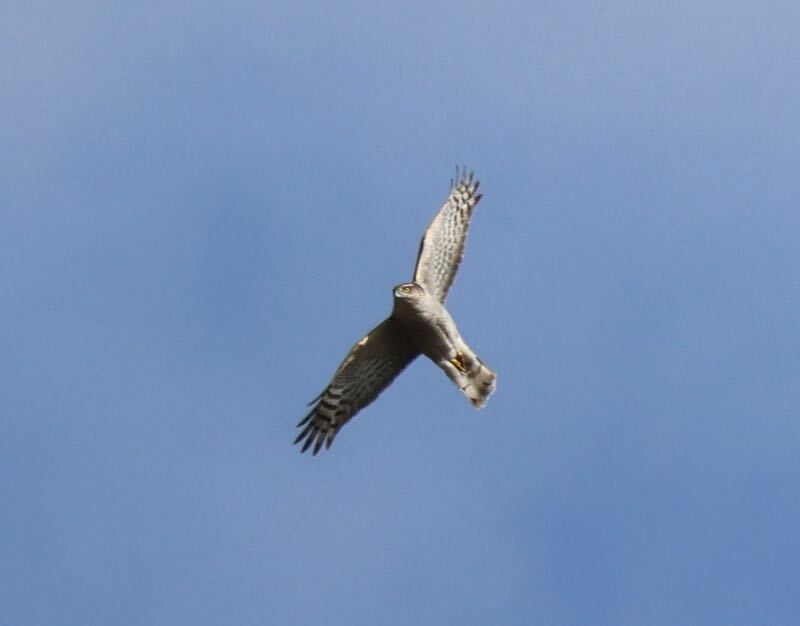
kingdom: Animalia
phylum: Chordata
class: Aves
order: Accipitriformes
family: Accipitridae
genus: Accipiter
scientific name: Accipiter nisus
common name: Eurasian sparrowhawk
